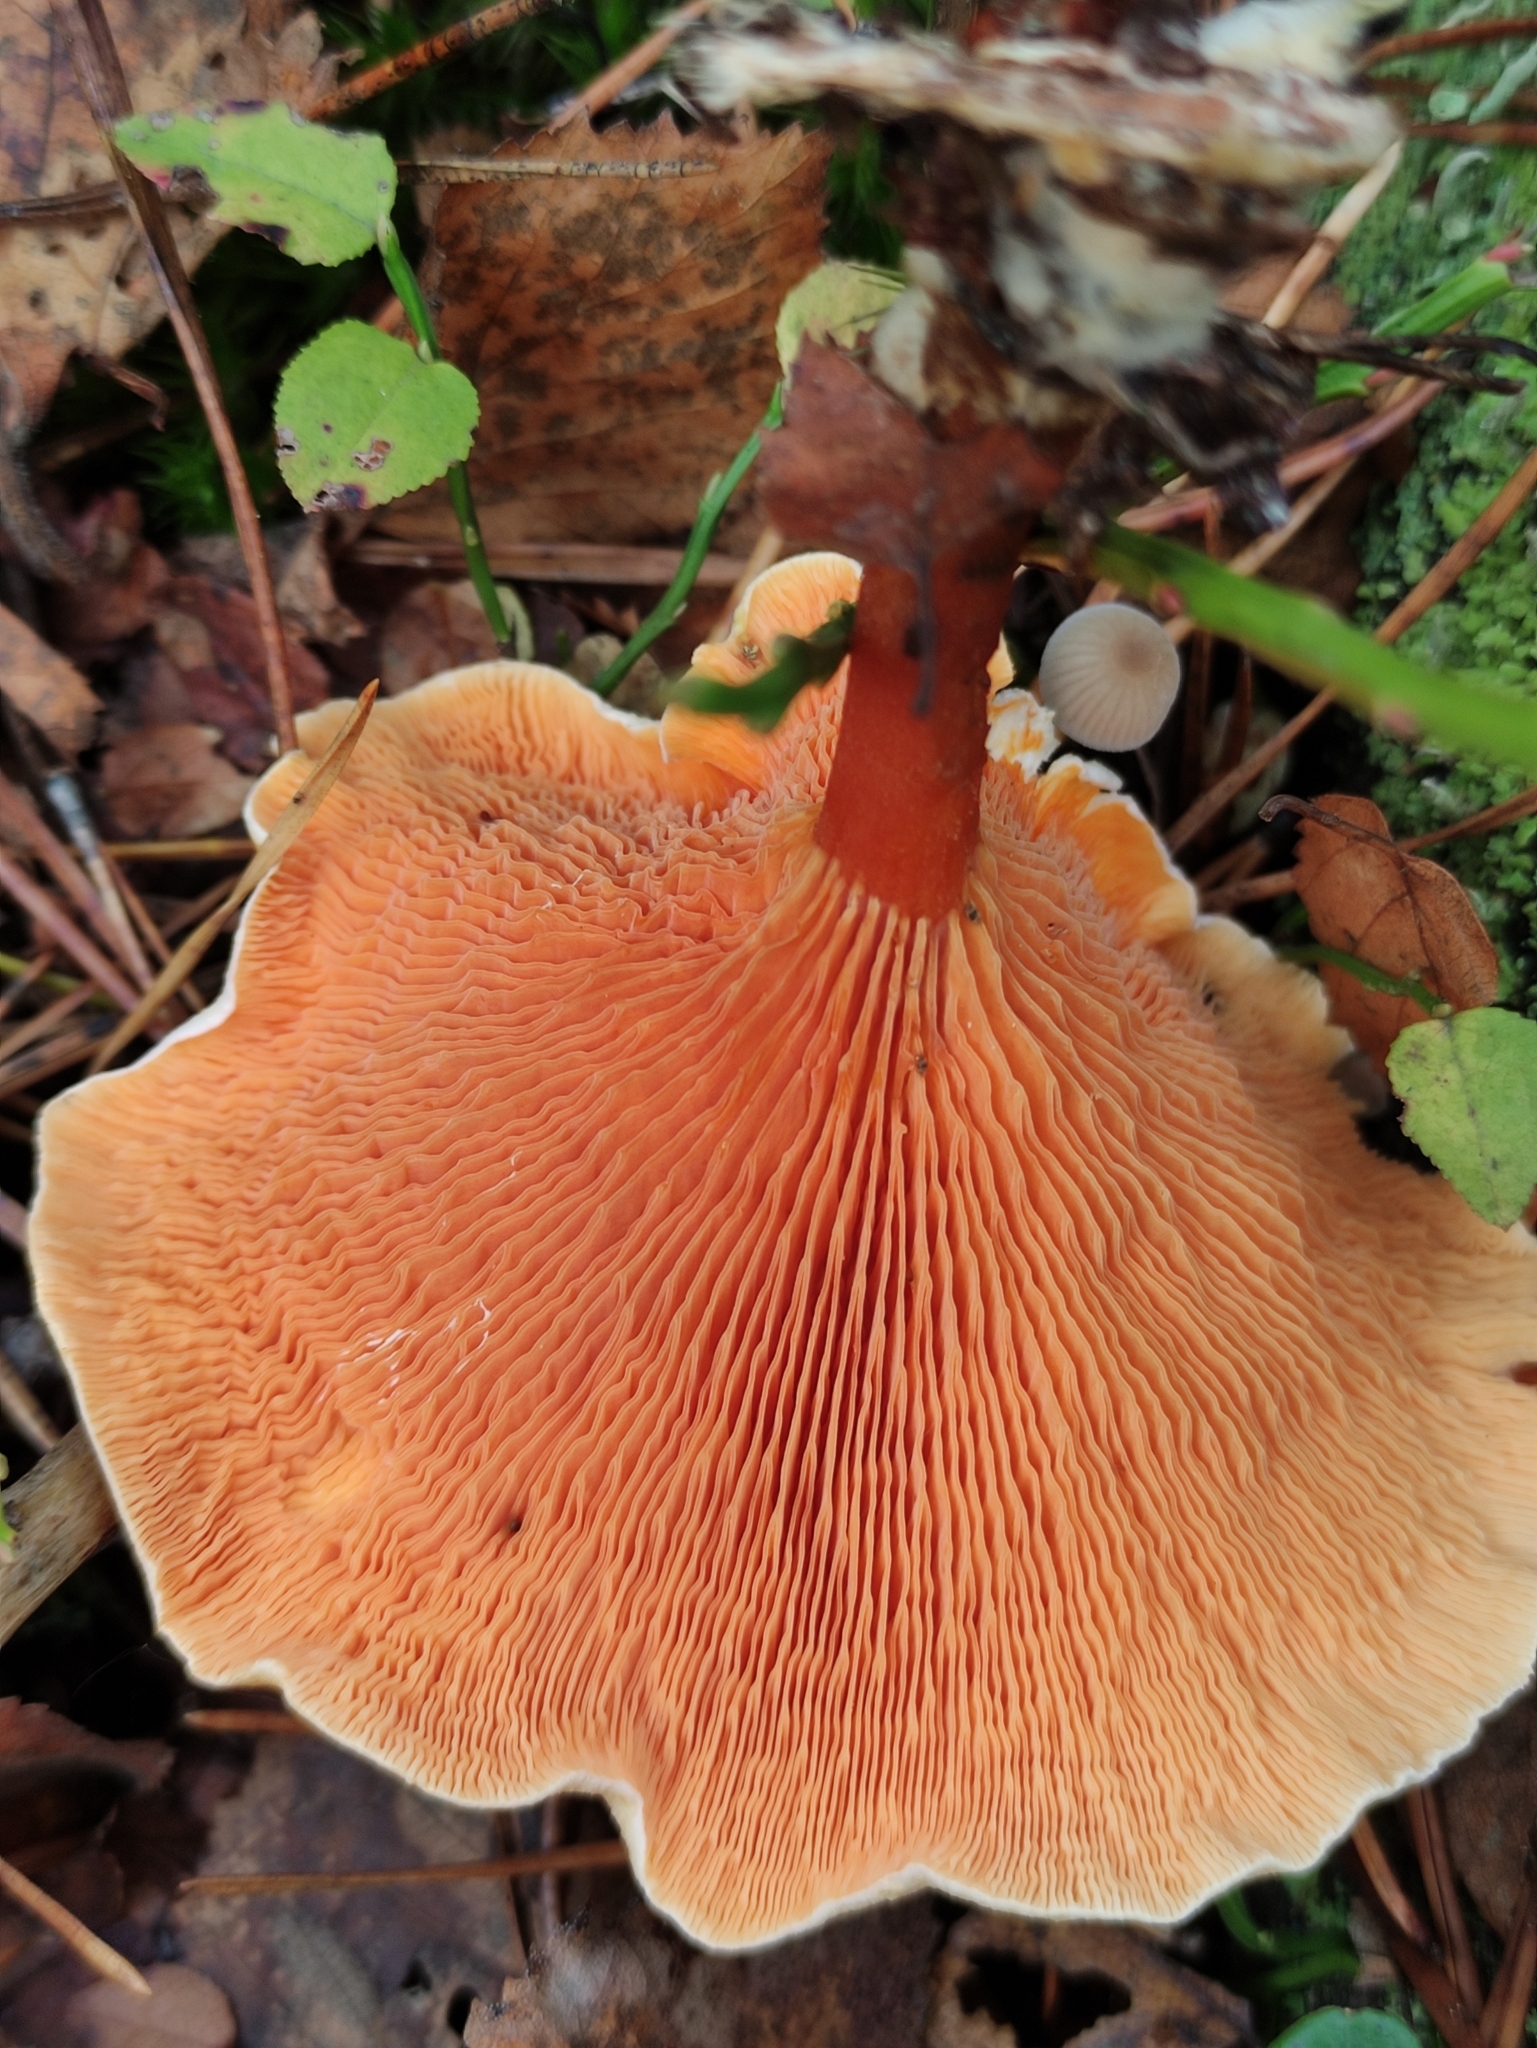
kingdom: Fungi
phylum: Basidiomycota
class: Agaricomycetes
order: Boletales
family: Hygrophoropsidaceae
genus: Hygrophoropsis
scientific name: Hygrophoropsis aurantiaca
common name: False chanterelle
